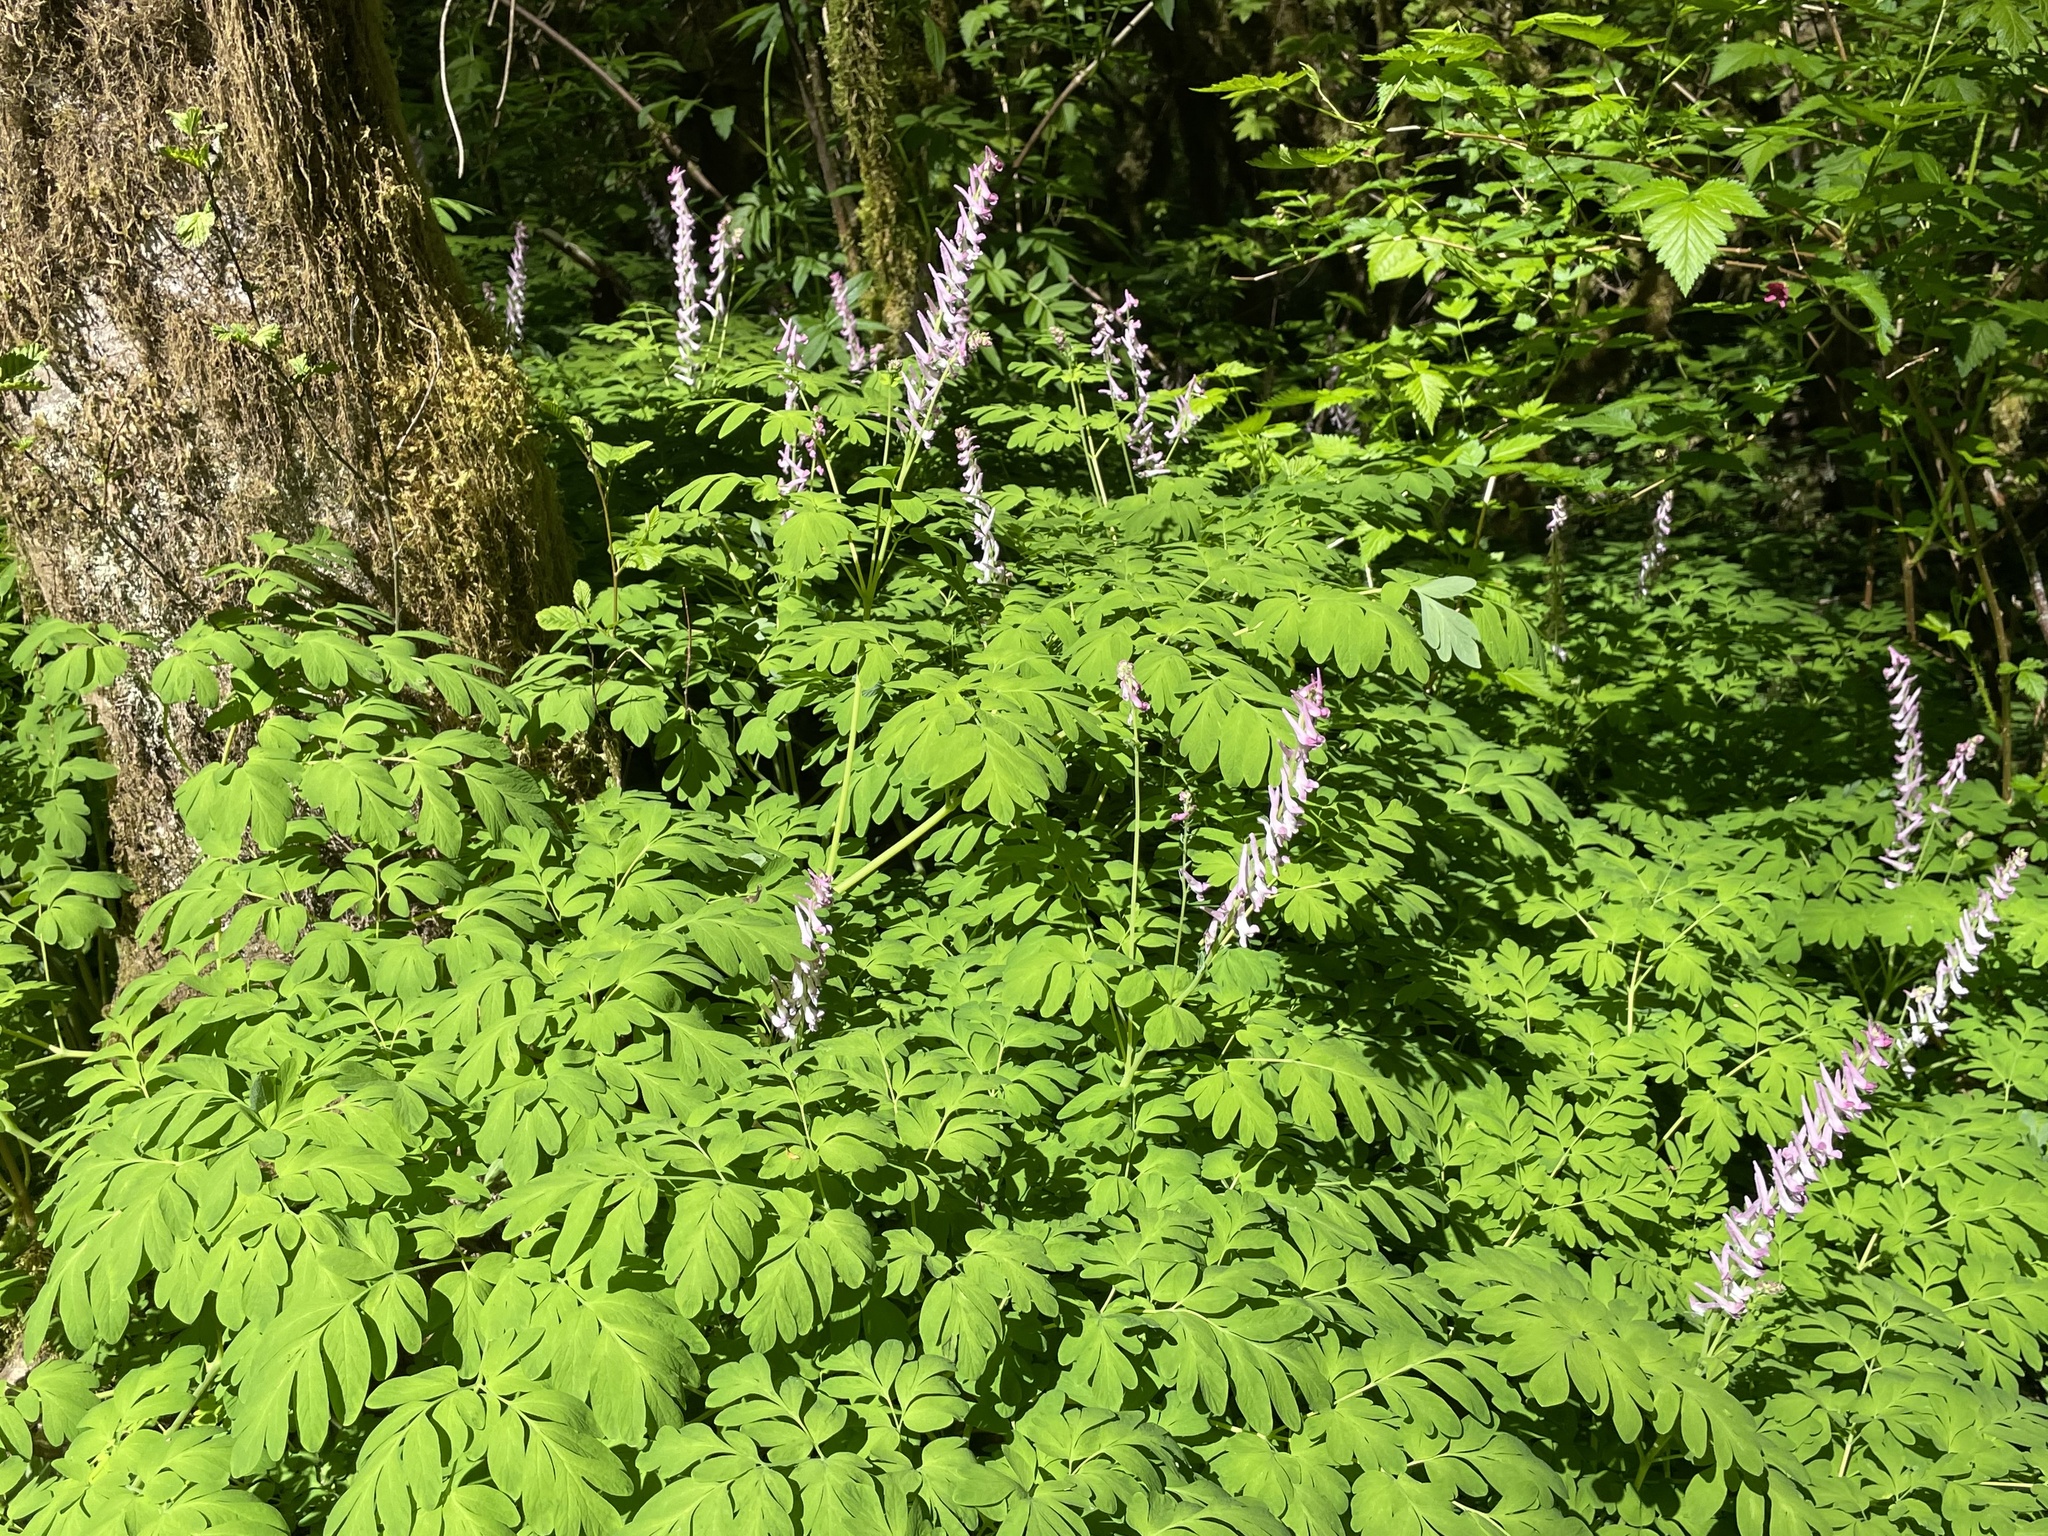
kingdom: Plantae
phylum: Tracheophyta
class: Magnoliopsida
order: Ranunculales
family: Papaveraceae
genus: Corydalis
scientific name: Corydalis scouleri
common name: Scouler's corydalis
